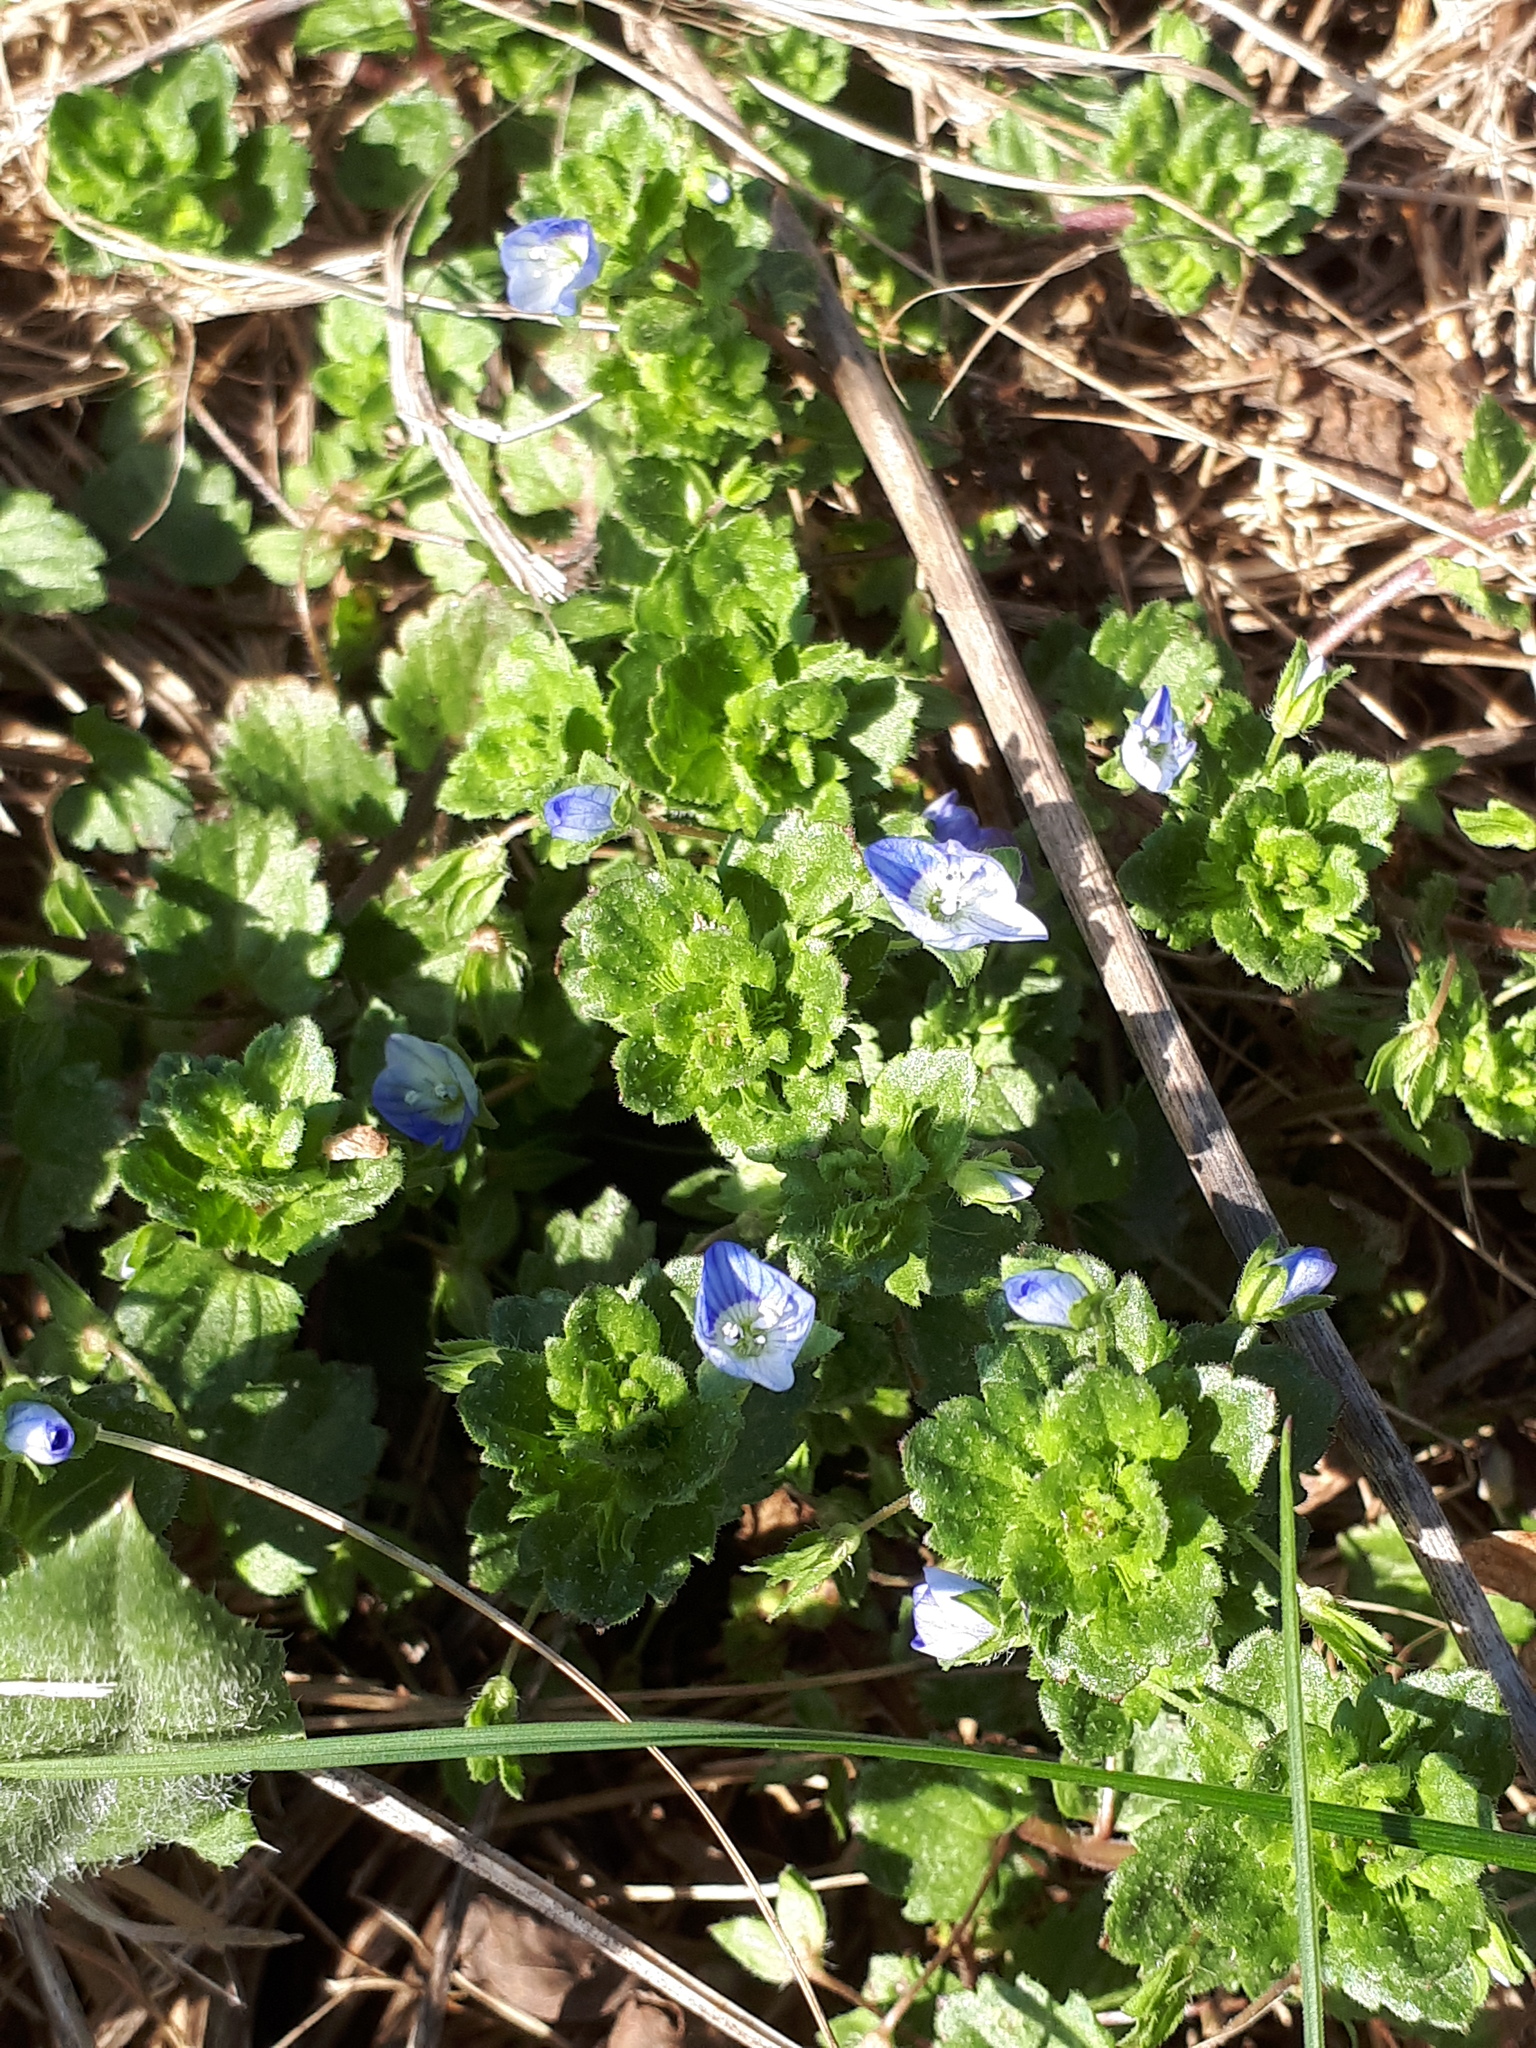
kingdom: Plantae
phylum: Tracheophyta
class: Magnoliopsida
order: Lamiales
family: Plantaginaceae
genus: Veronica
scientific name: Veronica persica
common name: Common field-speedwell
